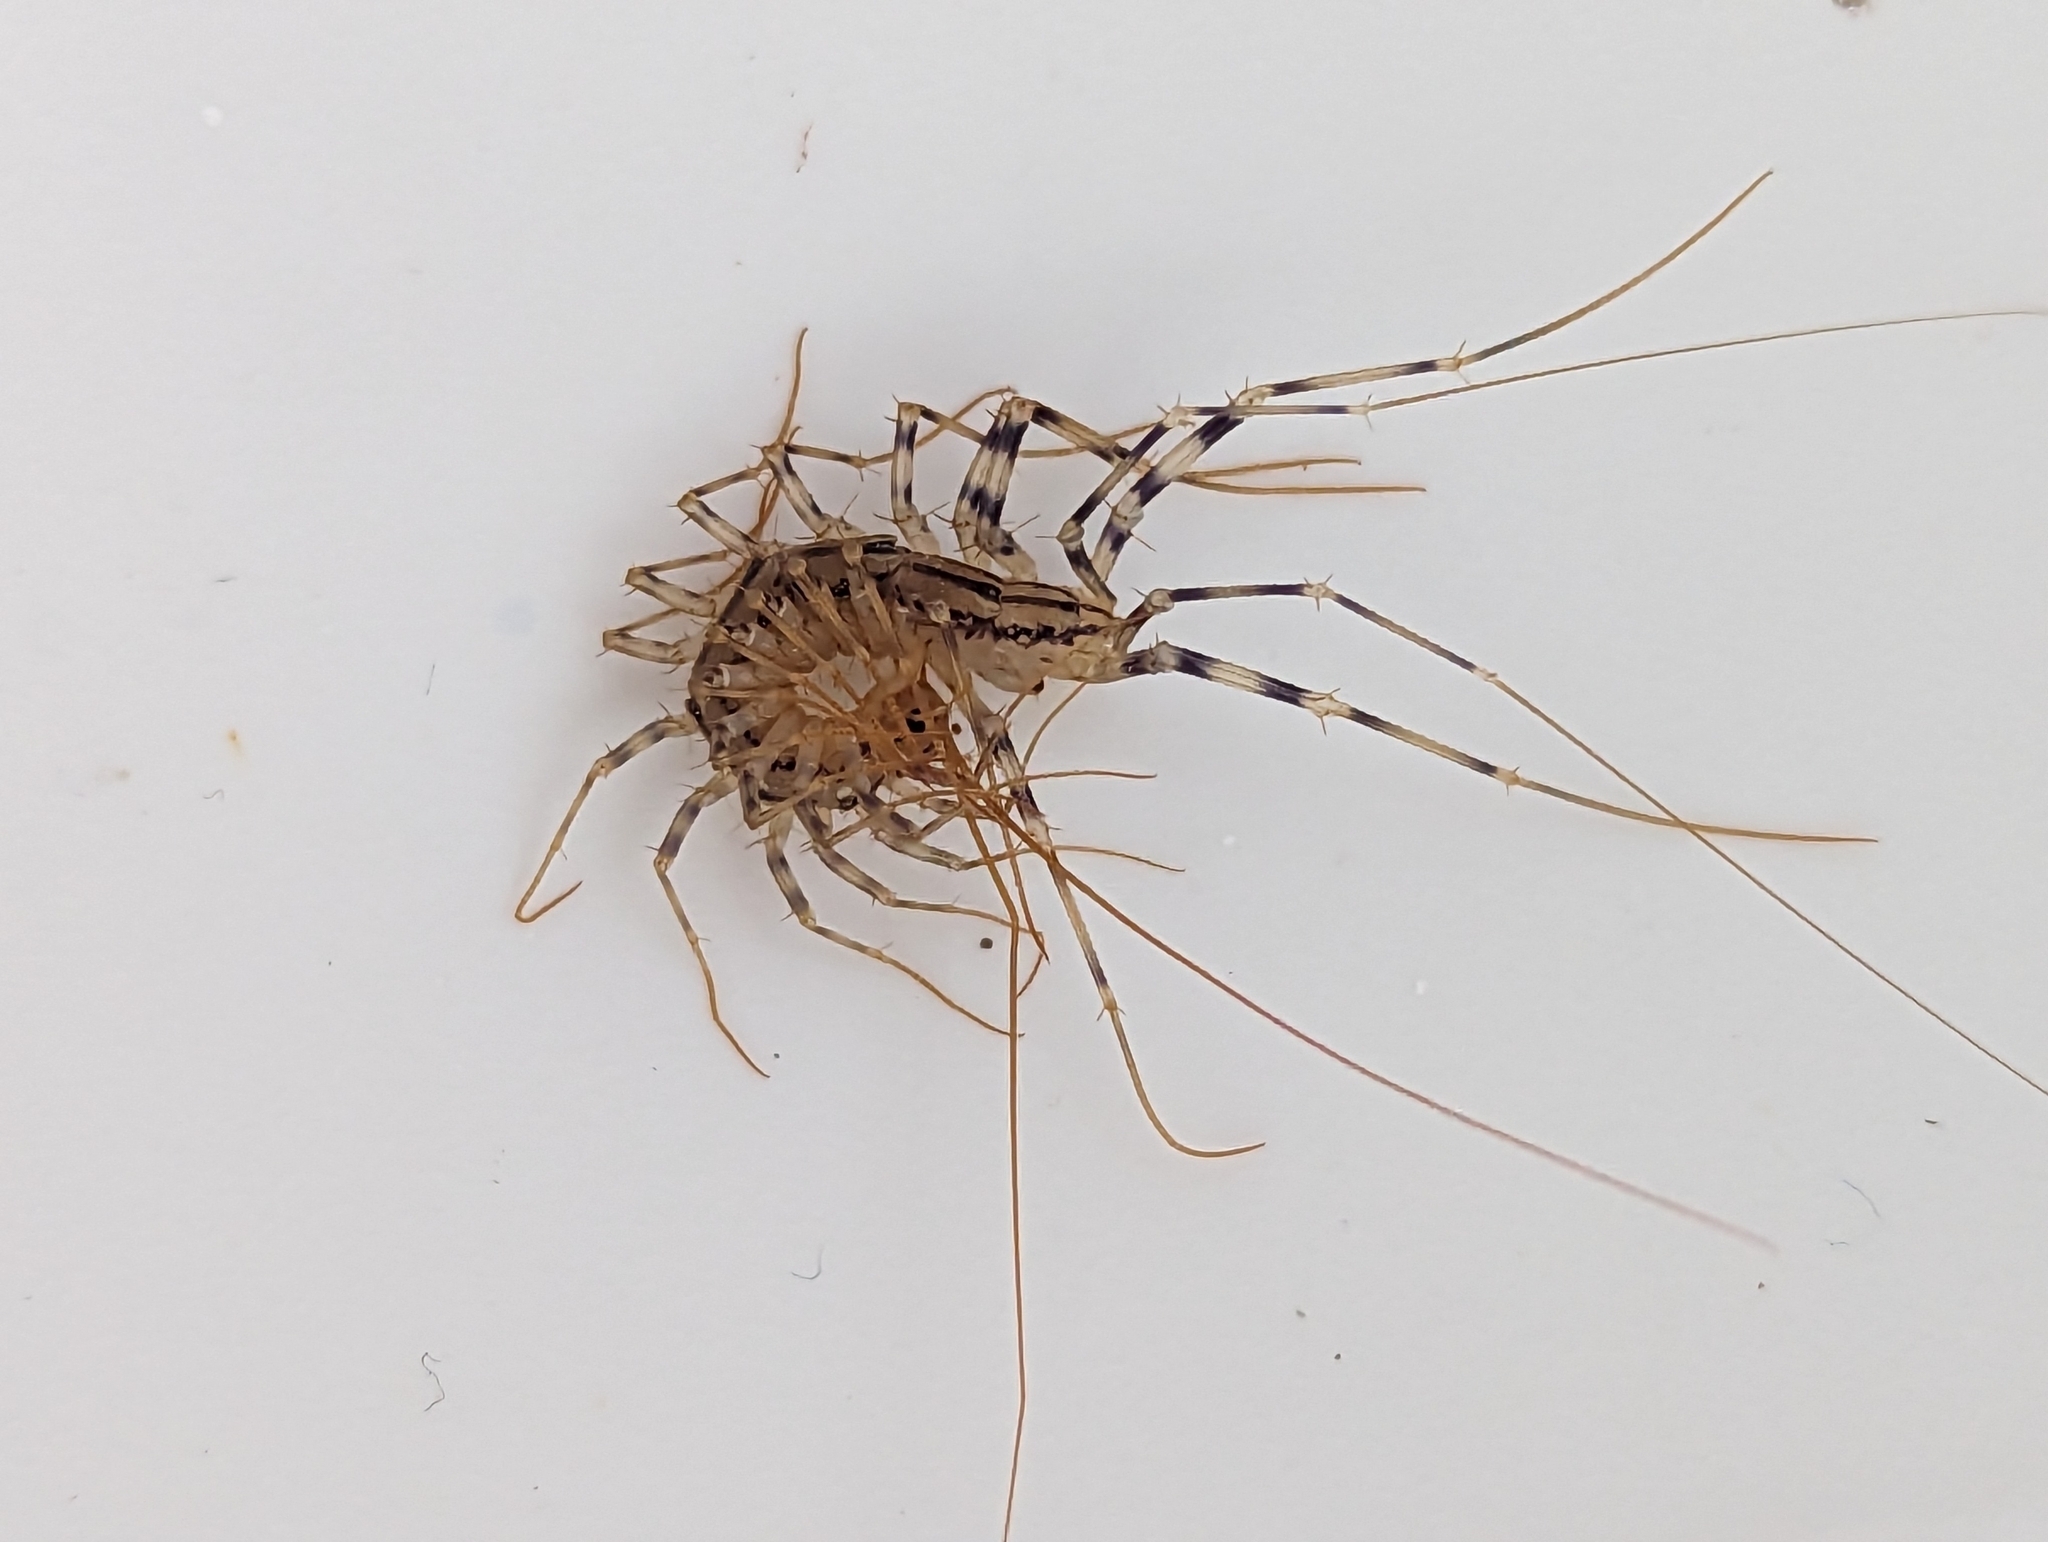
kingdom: Animalia
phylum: Arthropoda
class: Chilopoda
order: Scutigeromorpha
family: Scutigeridae
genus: Scutigera
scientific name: Scutigera coleoptrata
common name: House centipede
